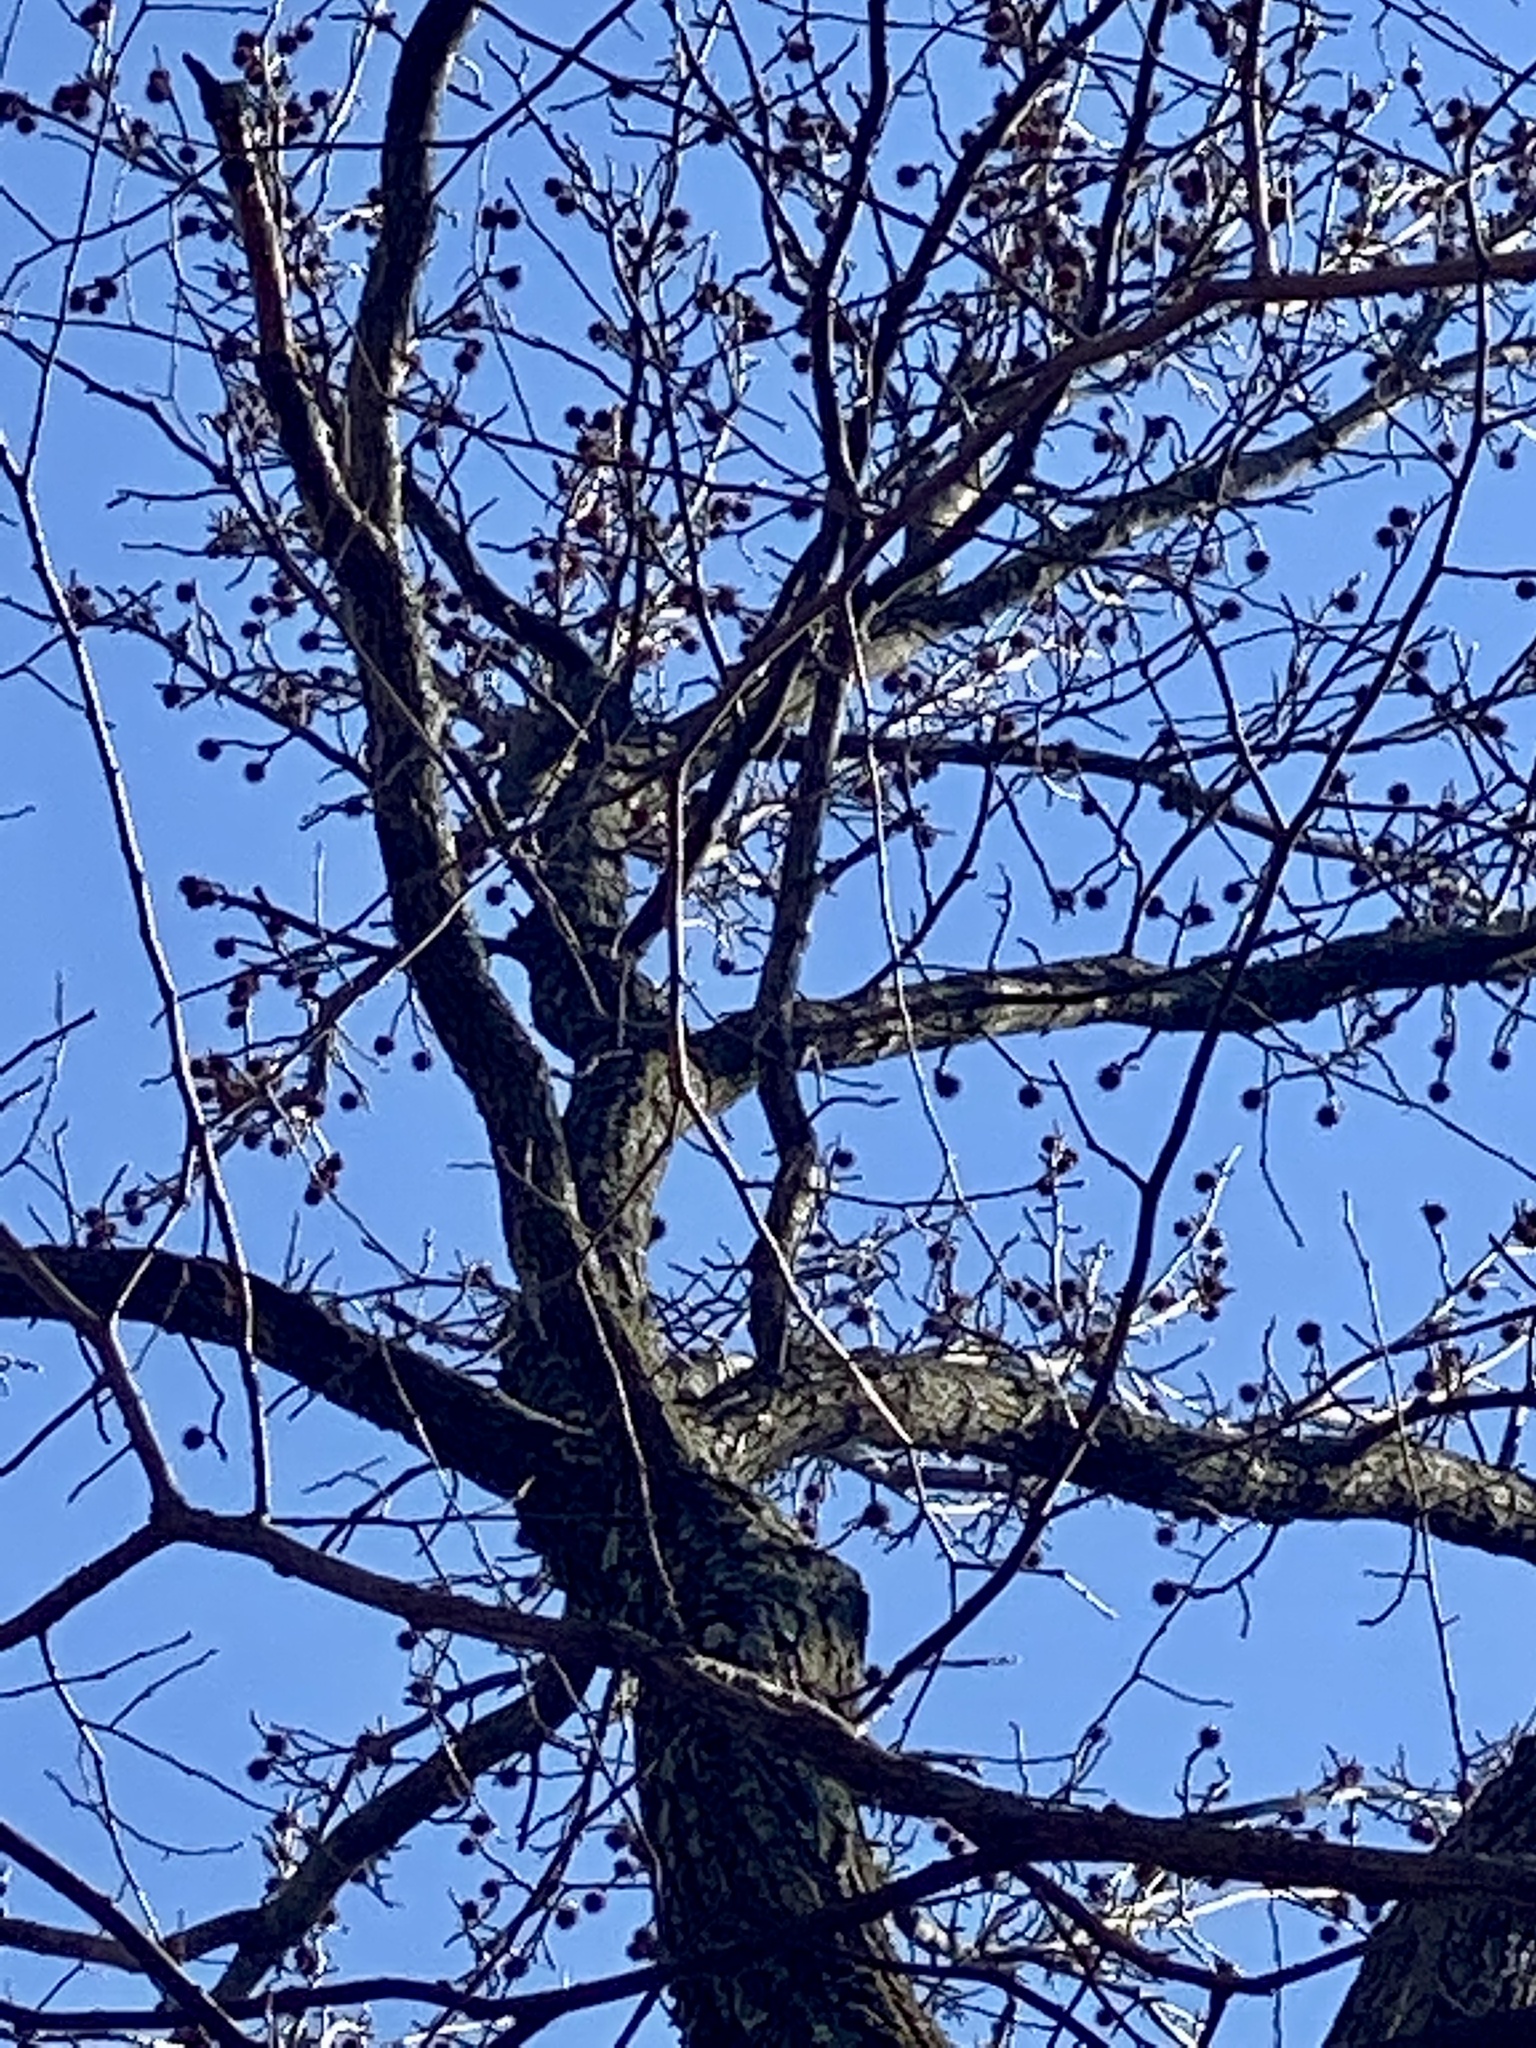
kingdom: Plantae
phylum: Tracheophyta
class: Magnoliopsida
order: Saxifragales
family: Altingiaceae
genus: Liquidambar
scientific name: Liquidambar styraciflua
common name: Sweet gum
